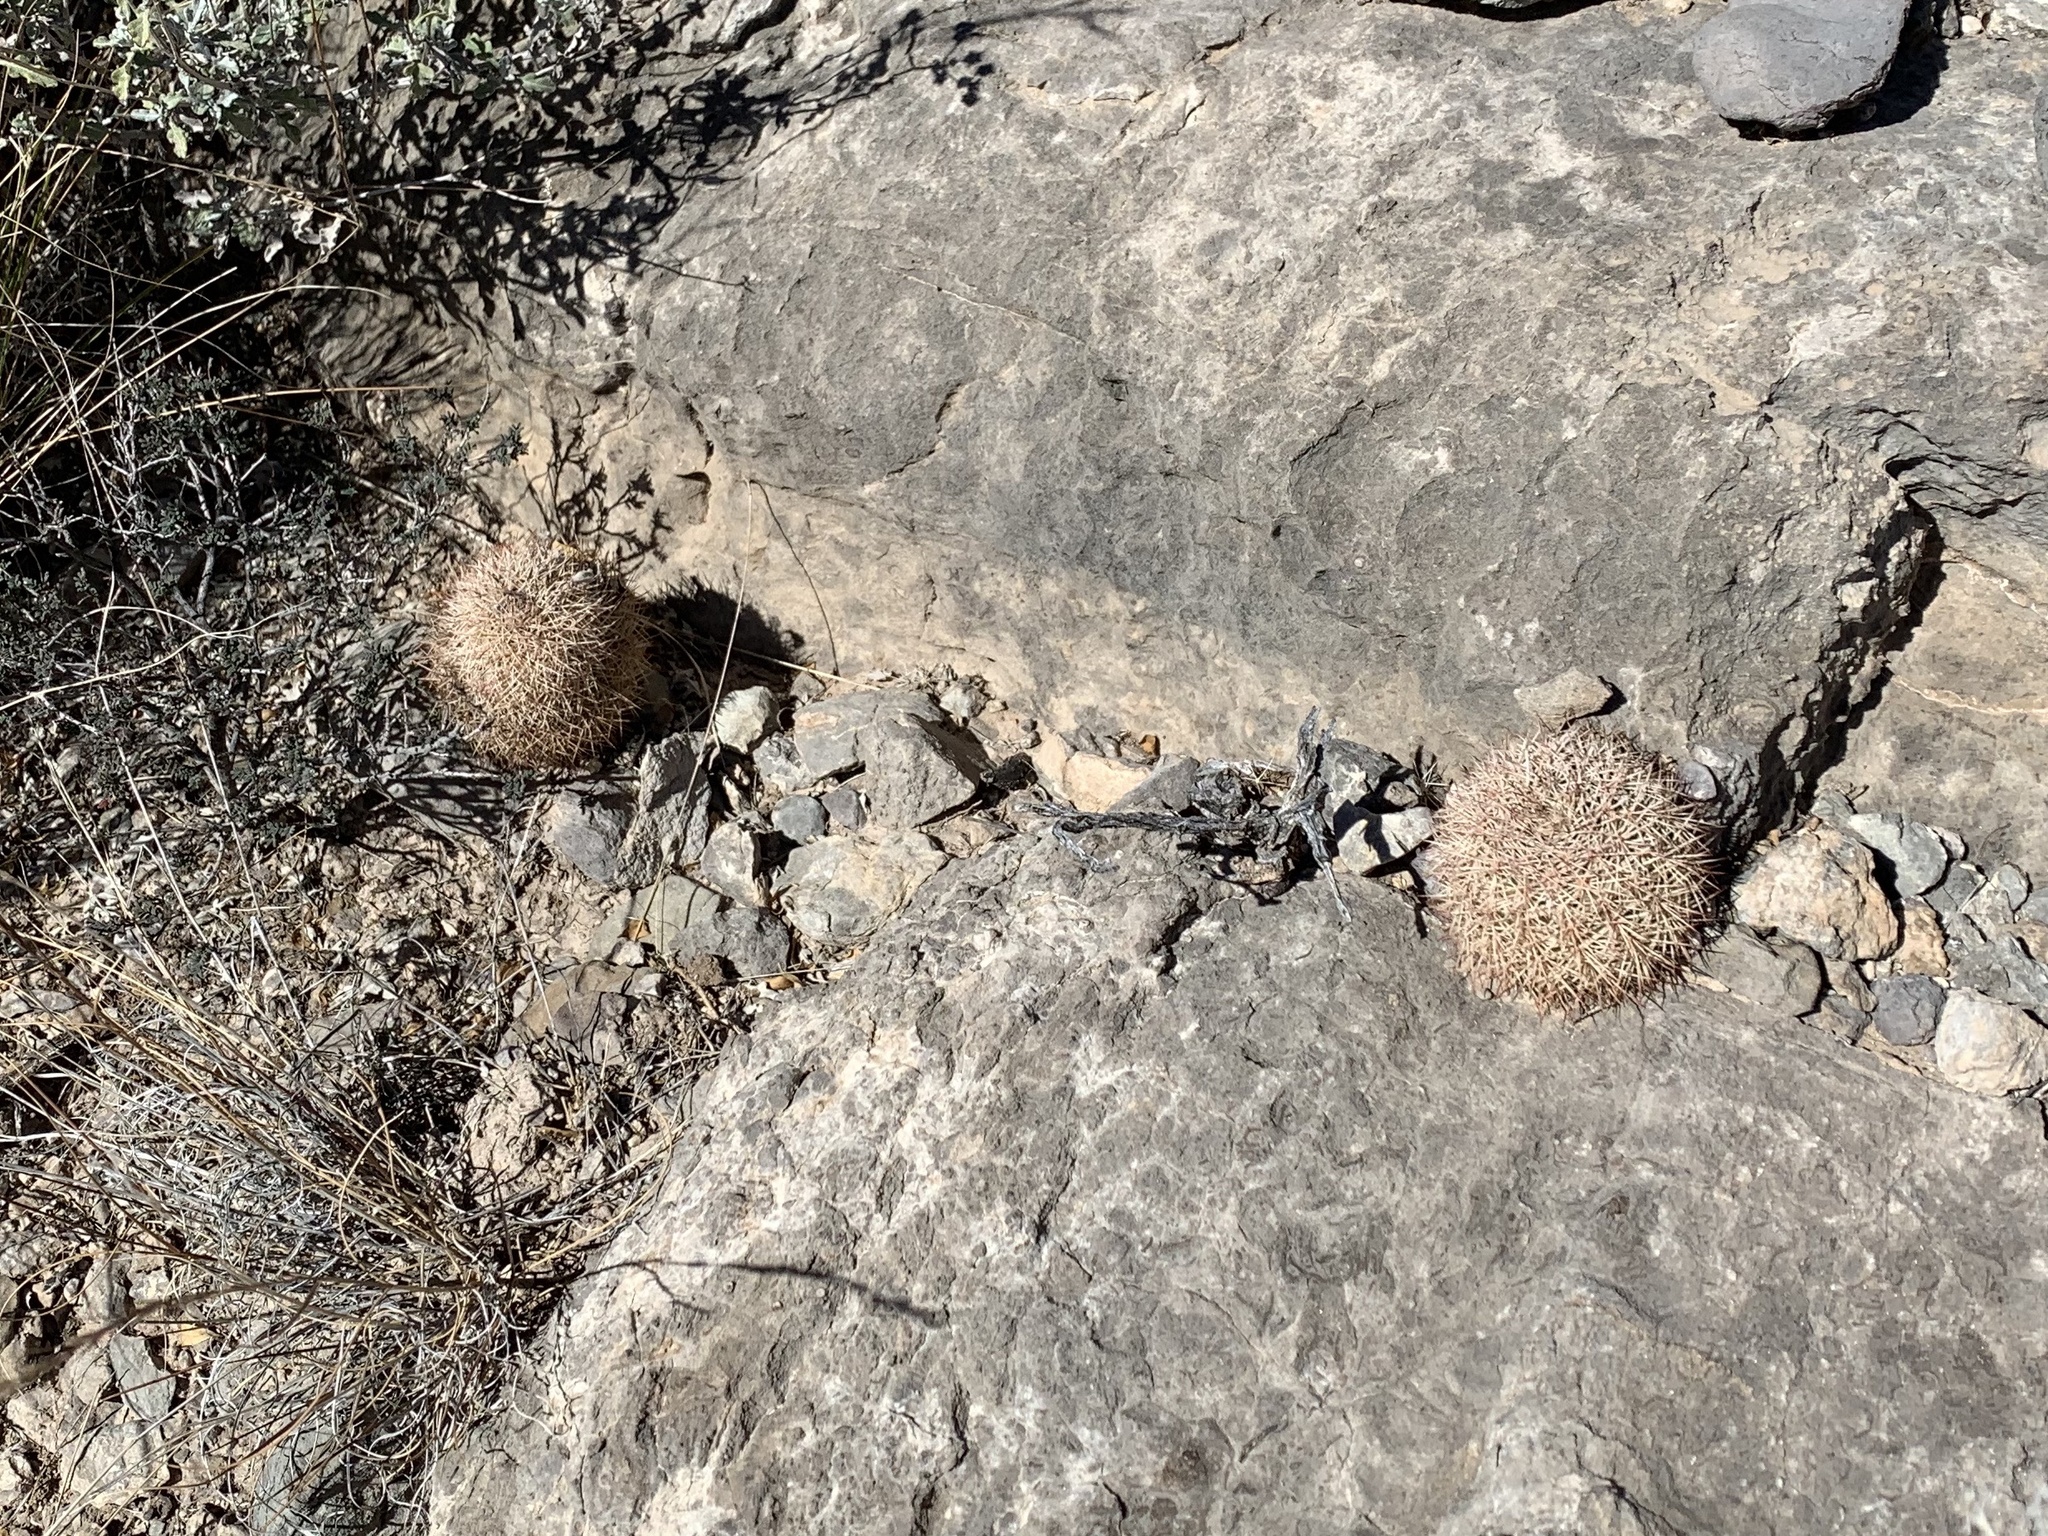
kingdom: Plantae
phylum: Tracheophyta
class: Magnoliopsida
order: Caryophyllales
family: Cactaceae
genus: Echinocereus
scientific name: Echinocereus dasyacanthus
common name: Spiny hedgehog cactus
